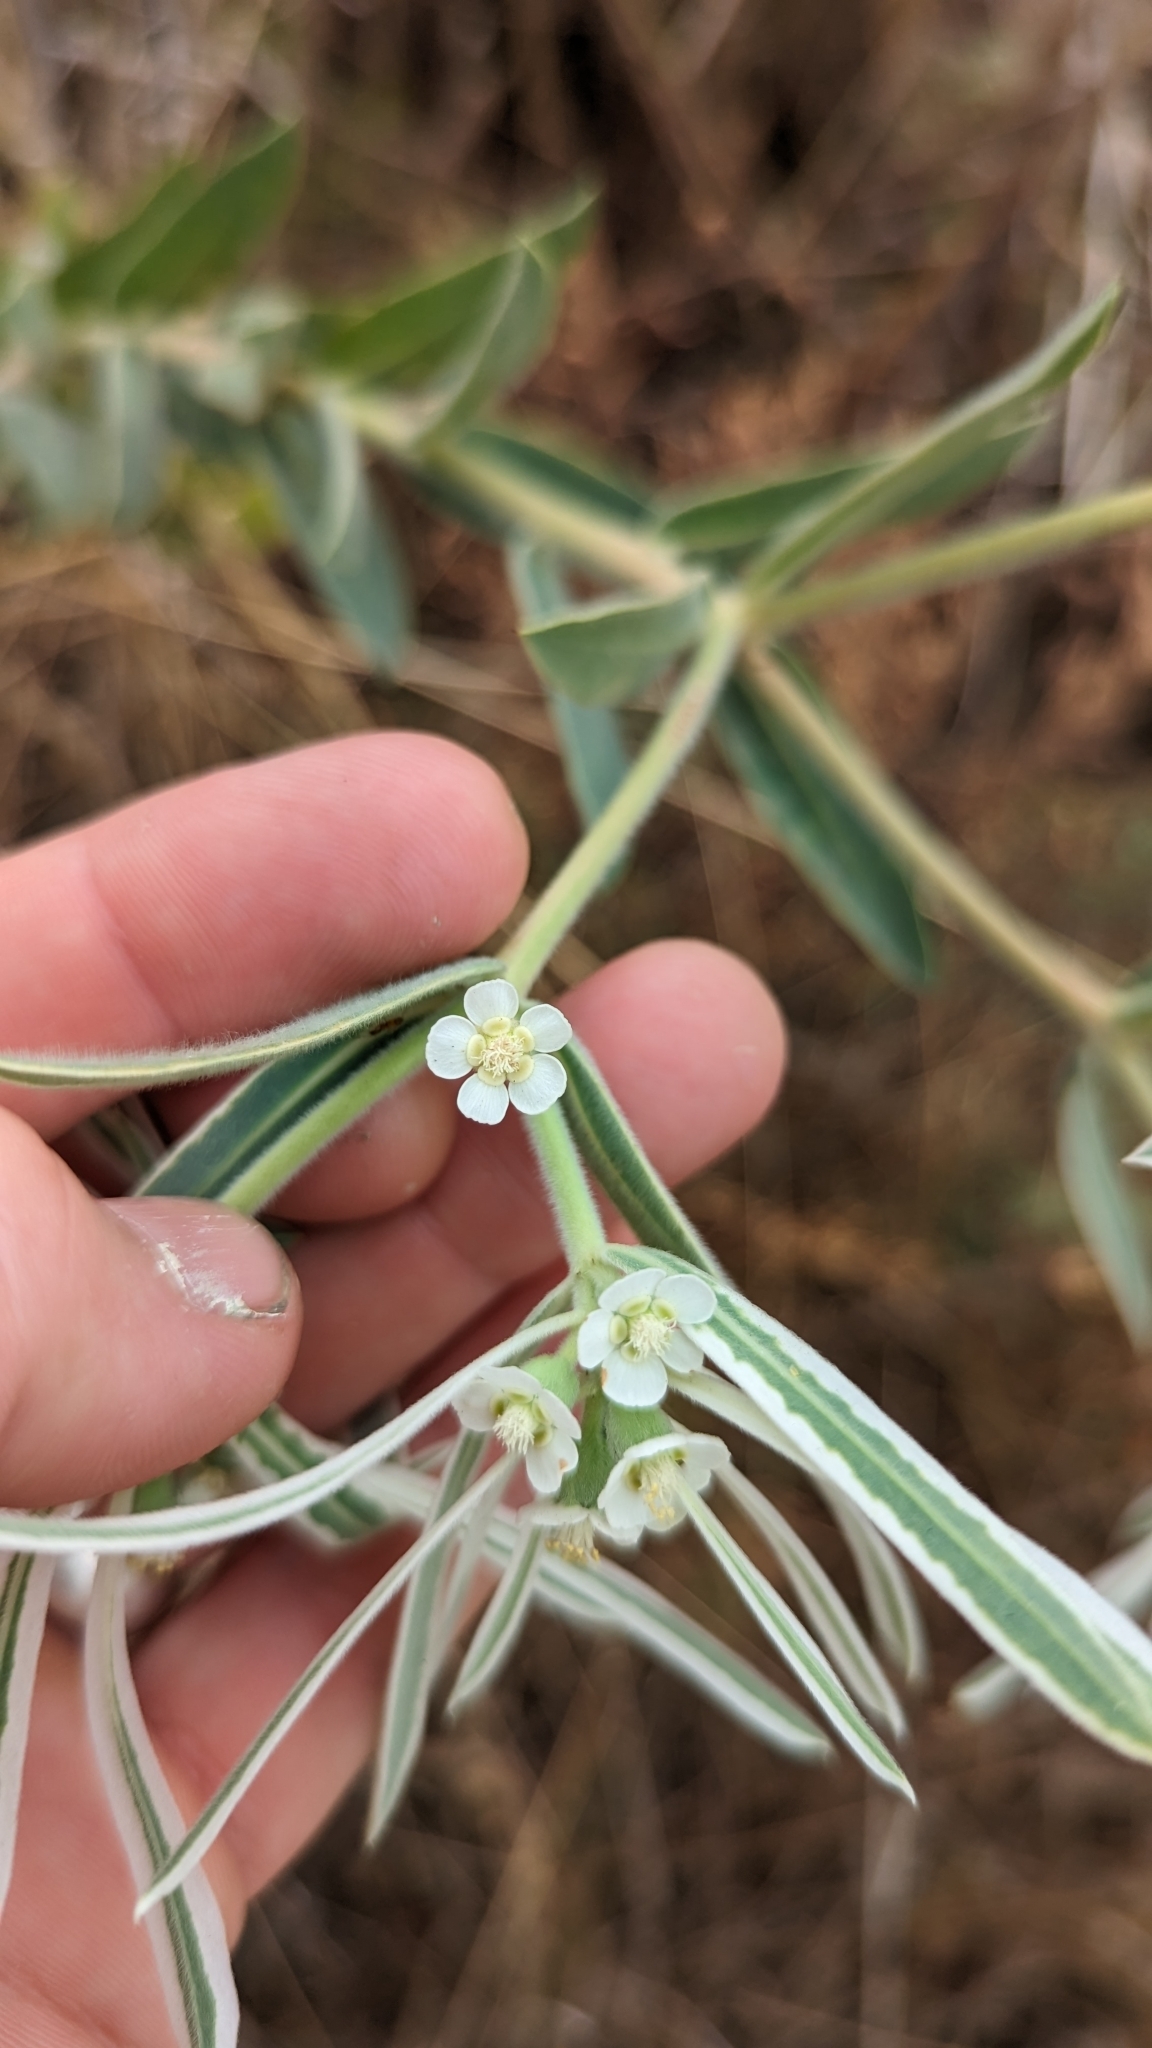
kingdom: Plantae
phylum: Tracheophyta
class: Magnoliopsida
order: Malpighiales
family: Euphorbiaceae
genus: Euphorbia
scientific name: Euphorbia bicolor
